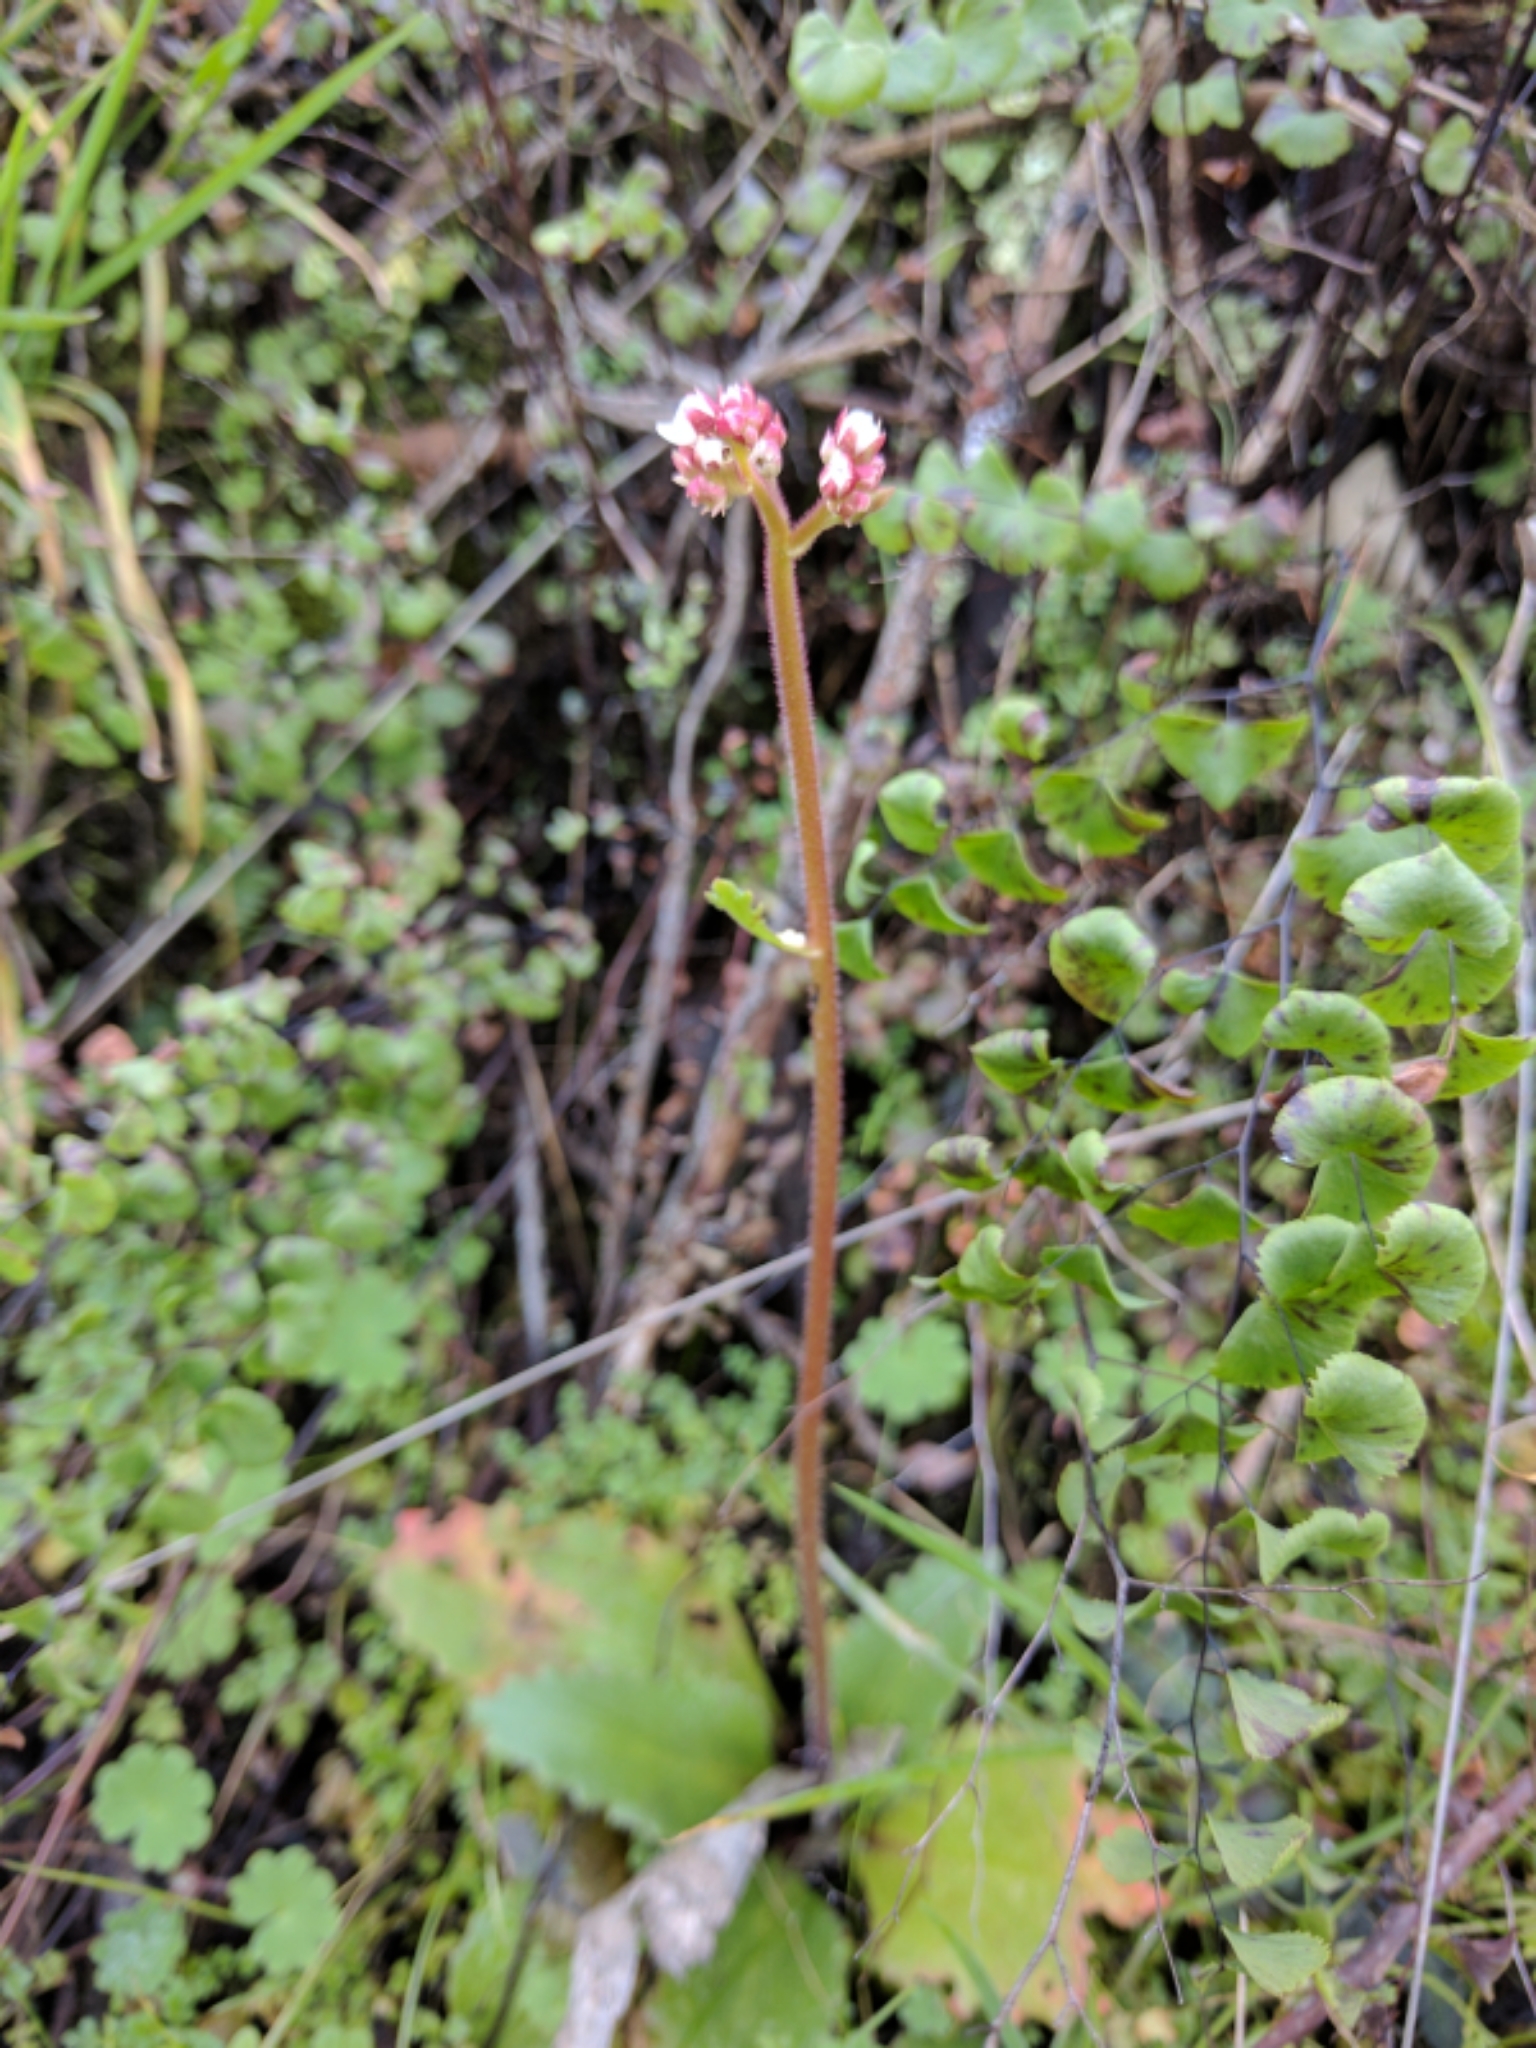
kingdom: Plantae
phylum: Tracheophyta
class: Magnoliopsida
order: Saxifragales
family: Saxifragaceae
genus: Micranthes
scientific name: Micranthes californica
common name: California saxifrage
